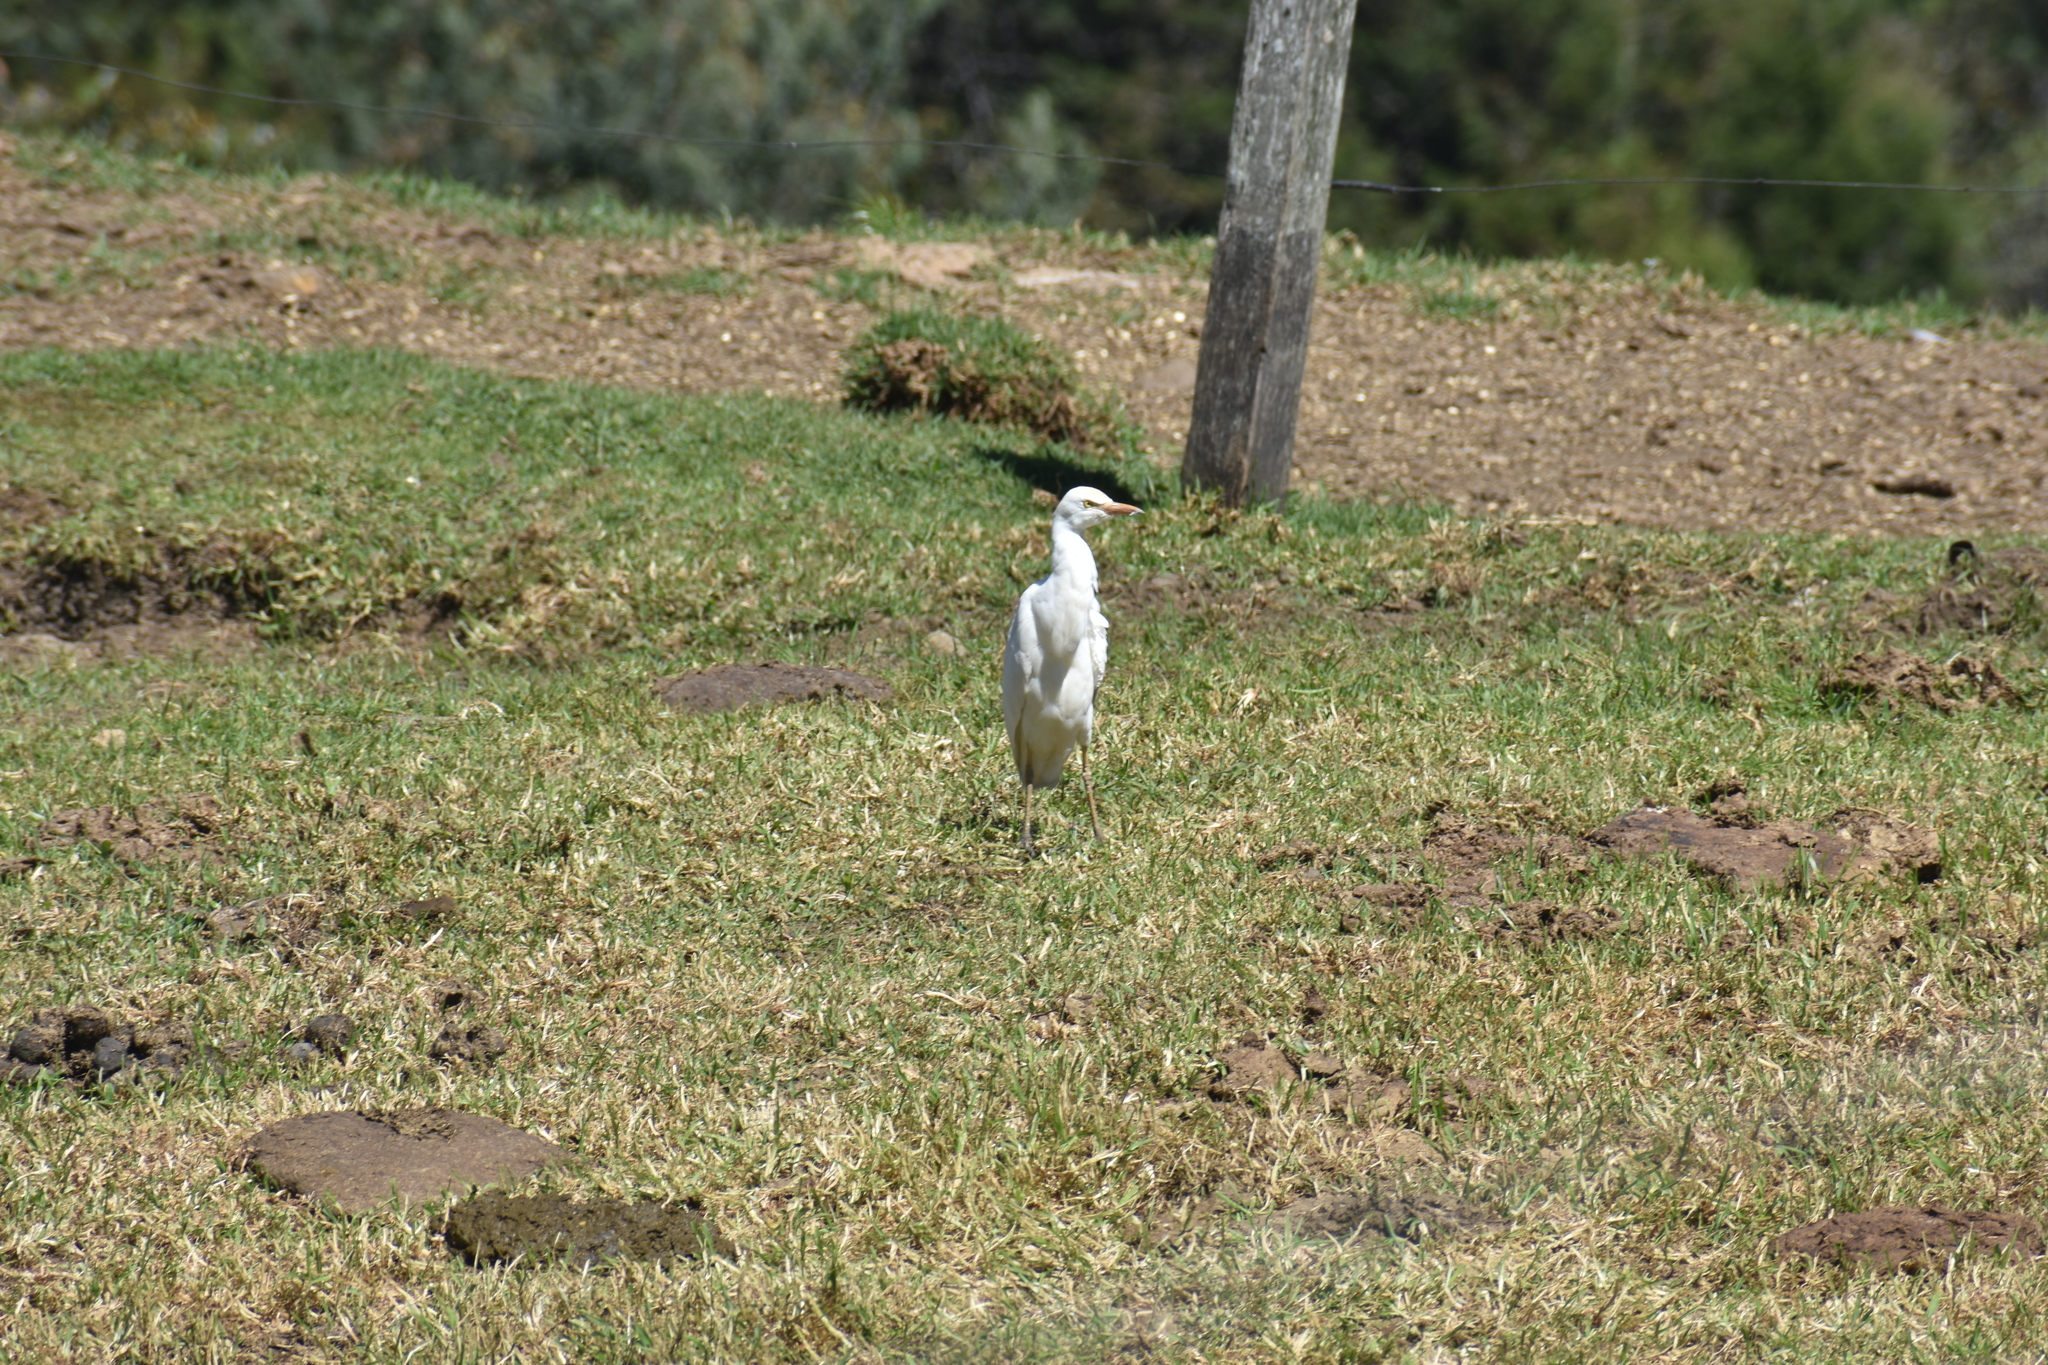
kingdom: Animalia
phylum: Chordata
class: Aves
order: Pelecaniformes
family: Ardeidae
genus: Bubulcus
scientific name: Bubulcus ibis
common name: Cattle egret
